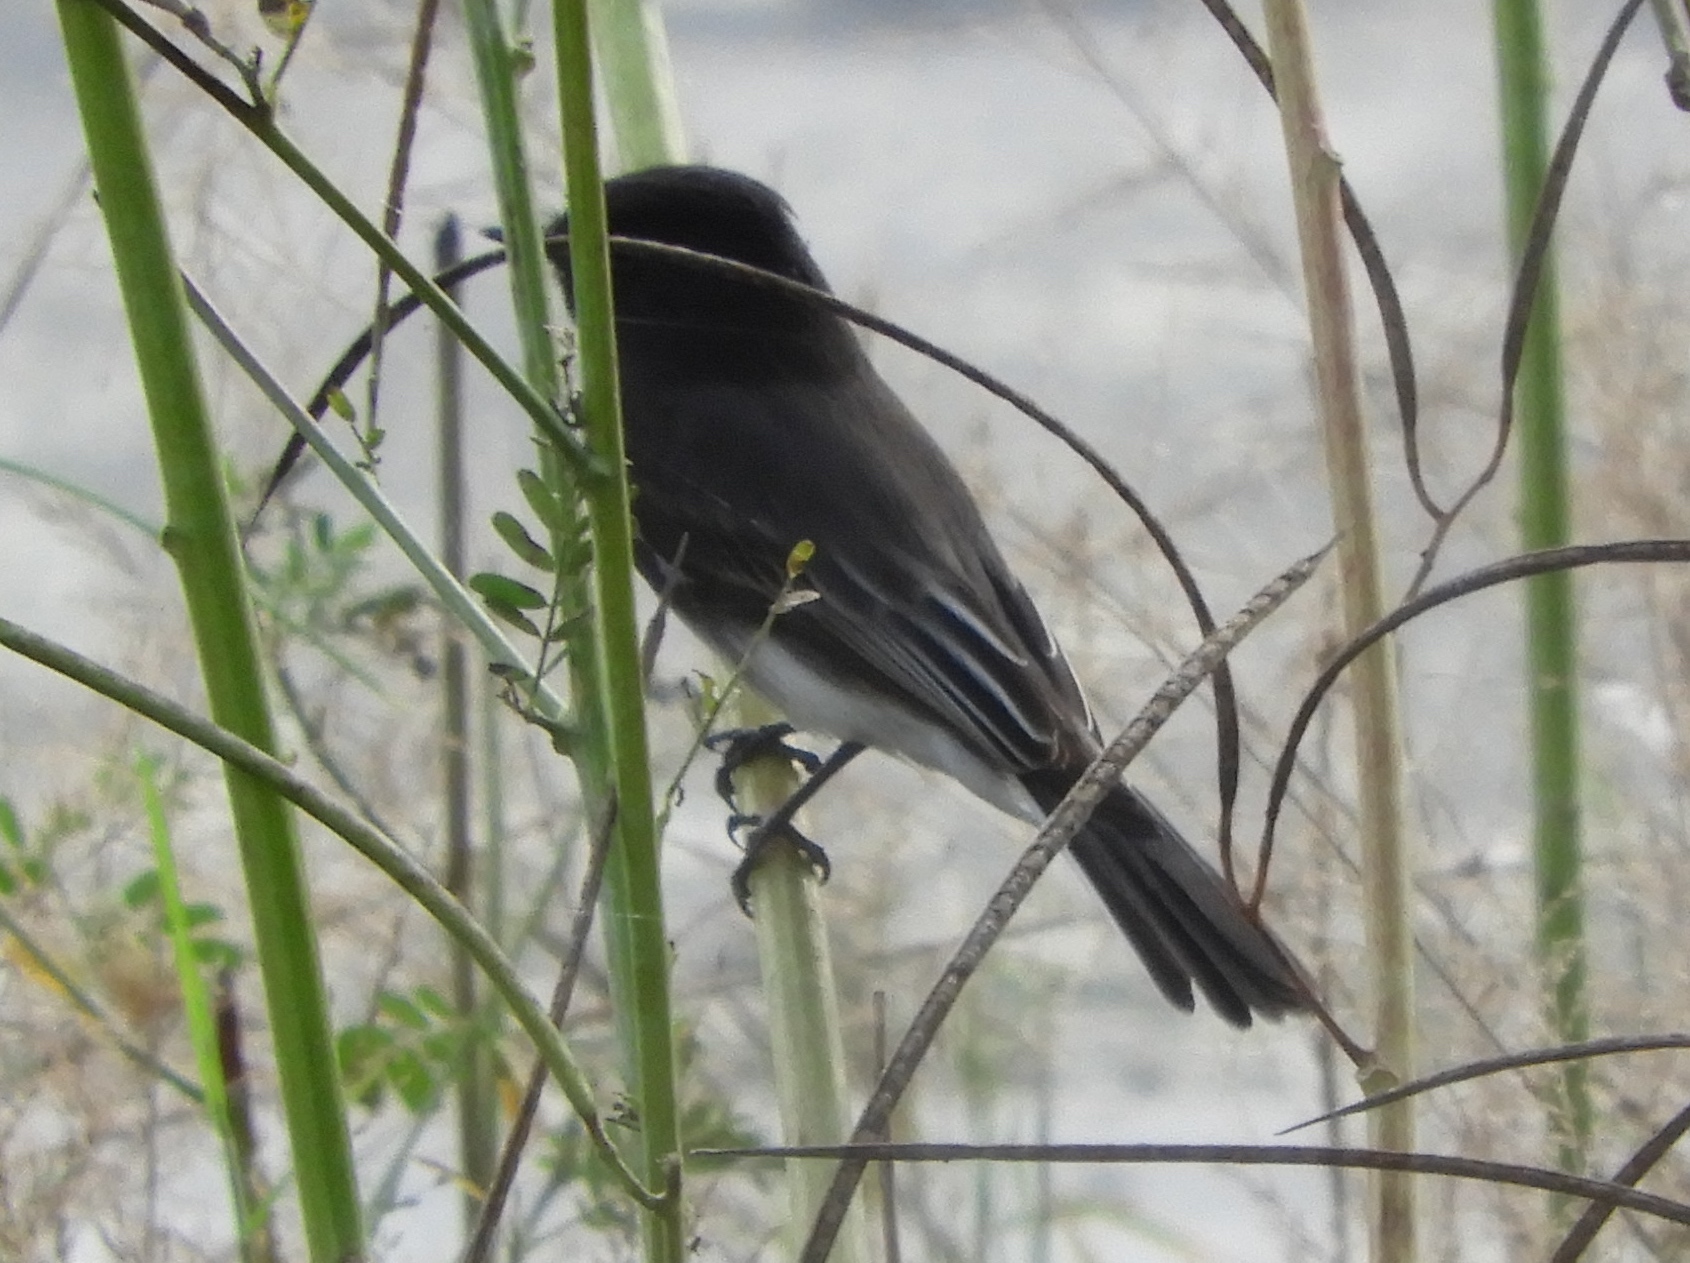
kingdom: Animalia
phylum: Chordata
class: Aves
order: Passeriformes
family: Tyrannidae
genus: Sayornis
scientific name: Sayornis nigricans
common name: Black phoebe
